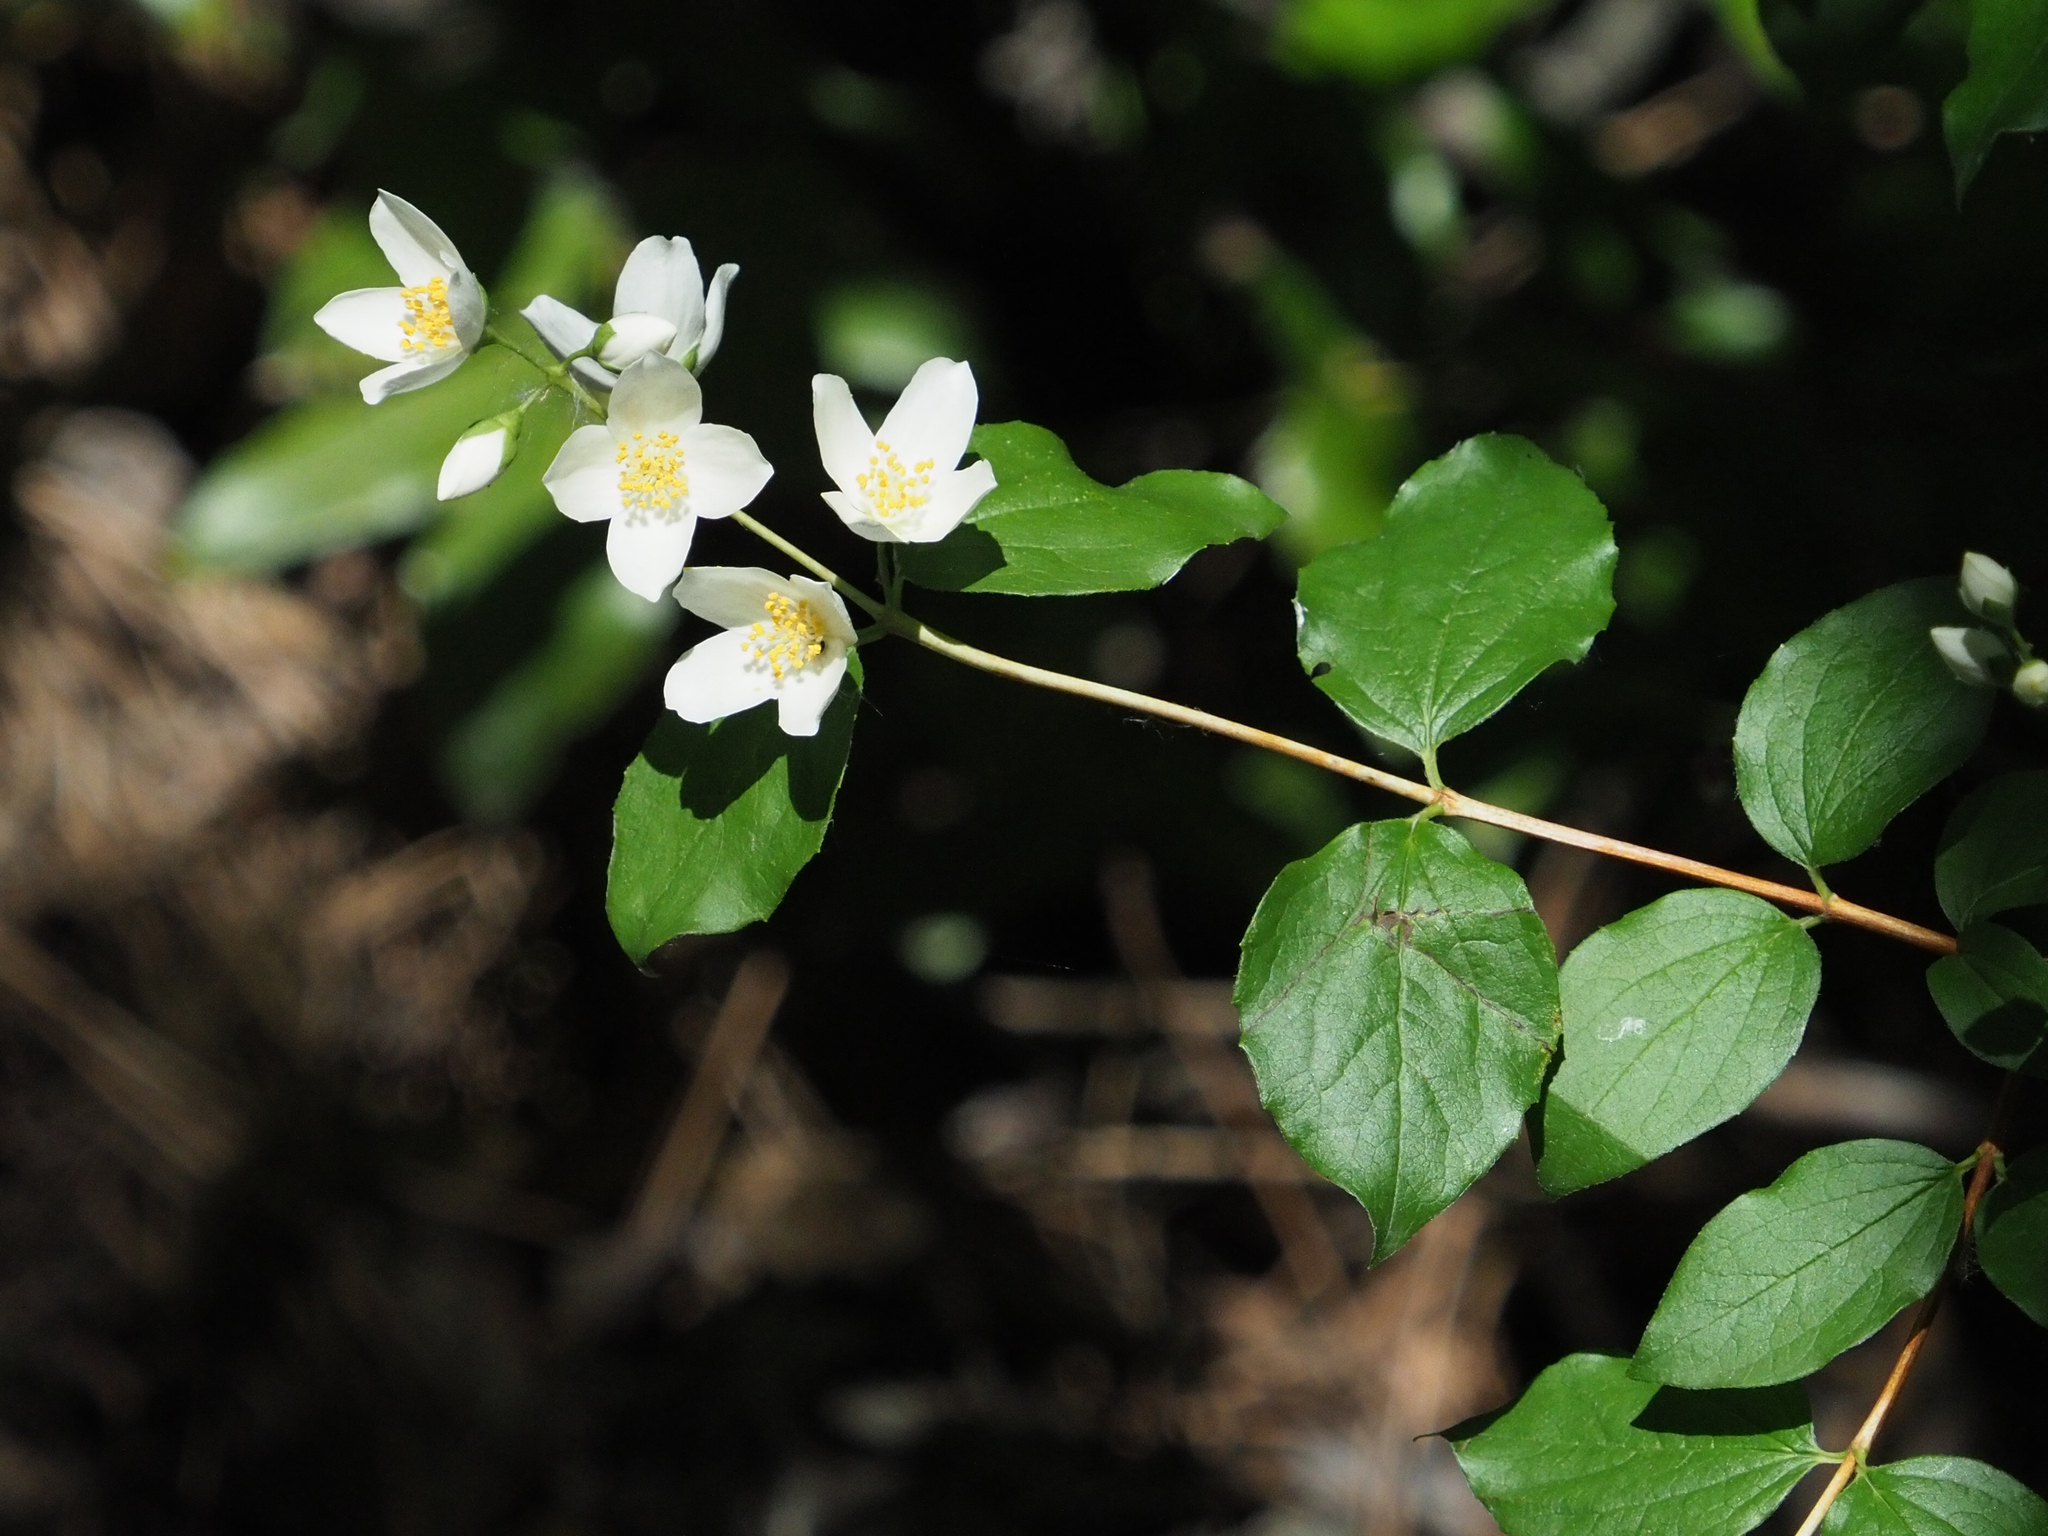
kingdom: Plantae
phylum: Tracheophyta
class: Magnoliopsida
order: Cornales
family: Hydrangeaceae
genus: Philadelphus
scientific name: Philadelphus lewisii
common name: Lewis's mock orange
